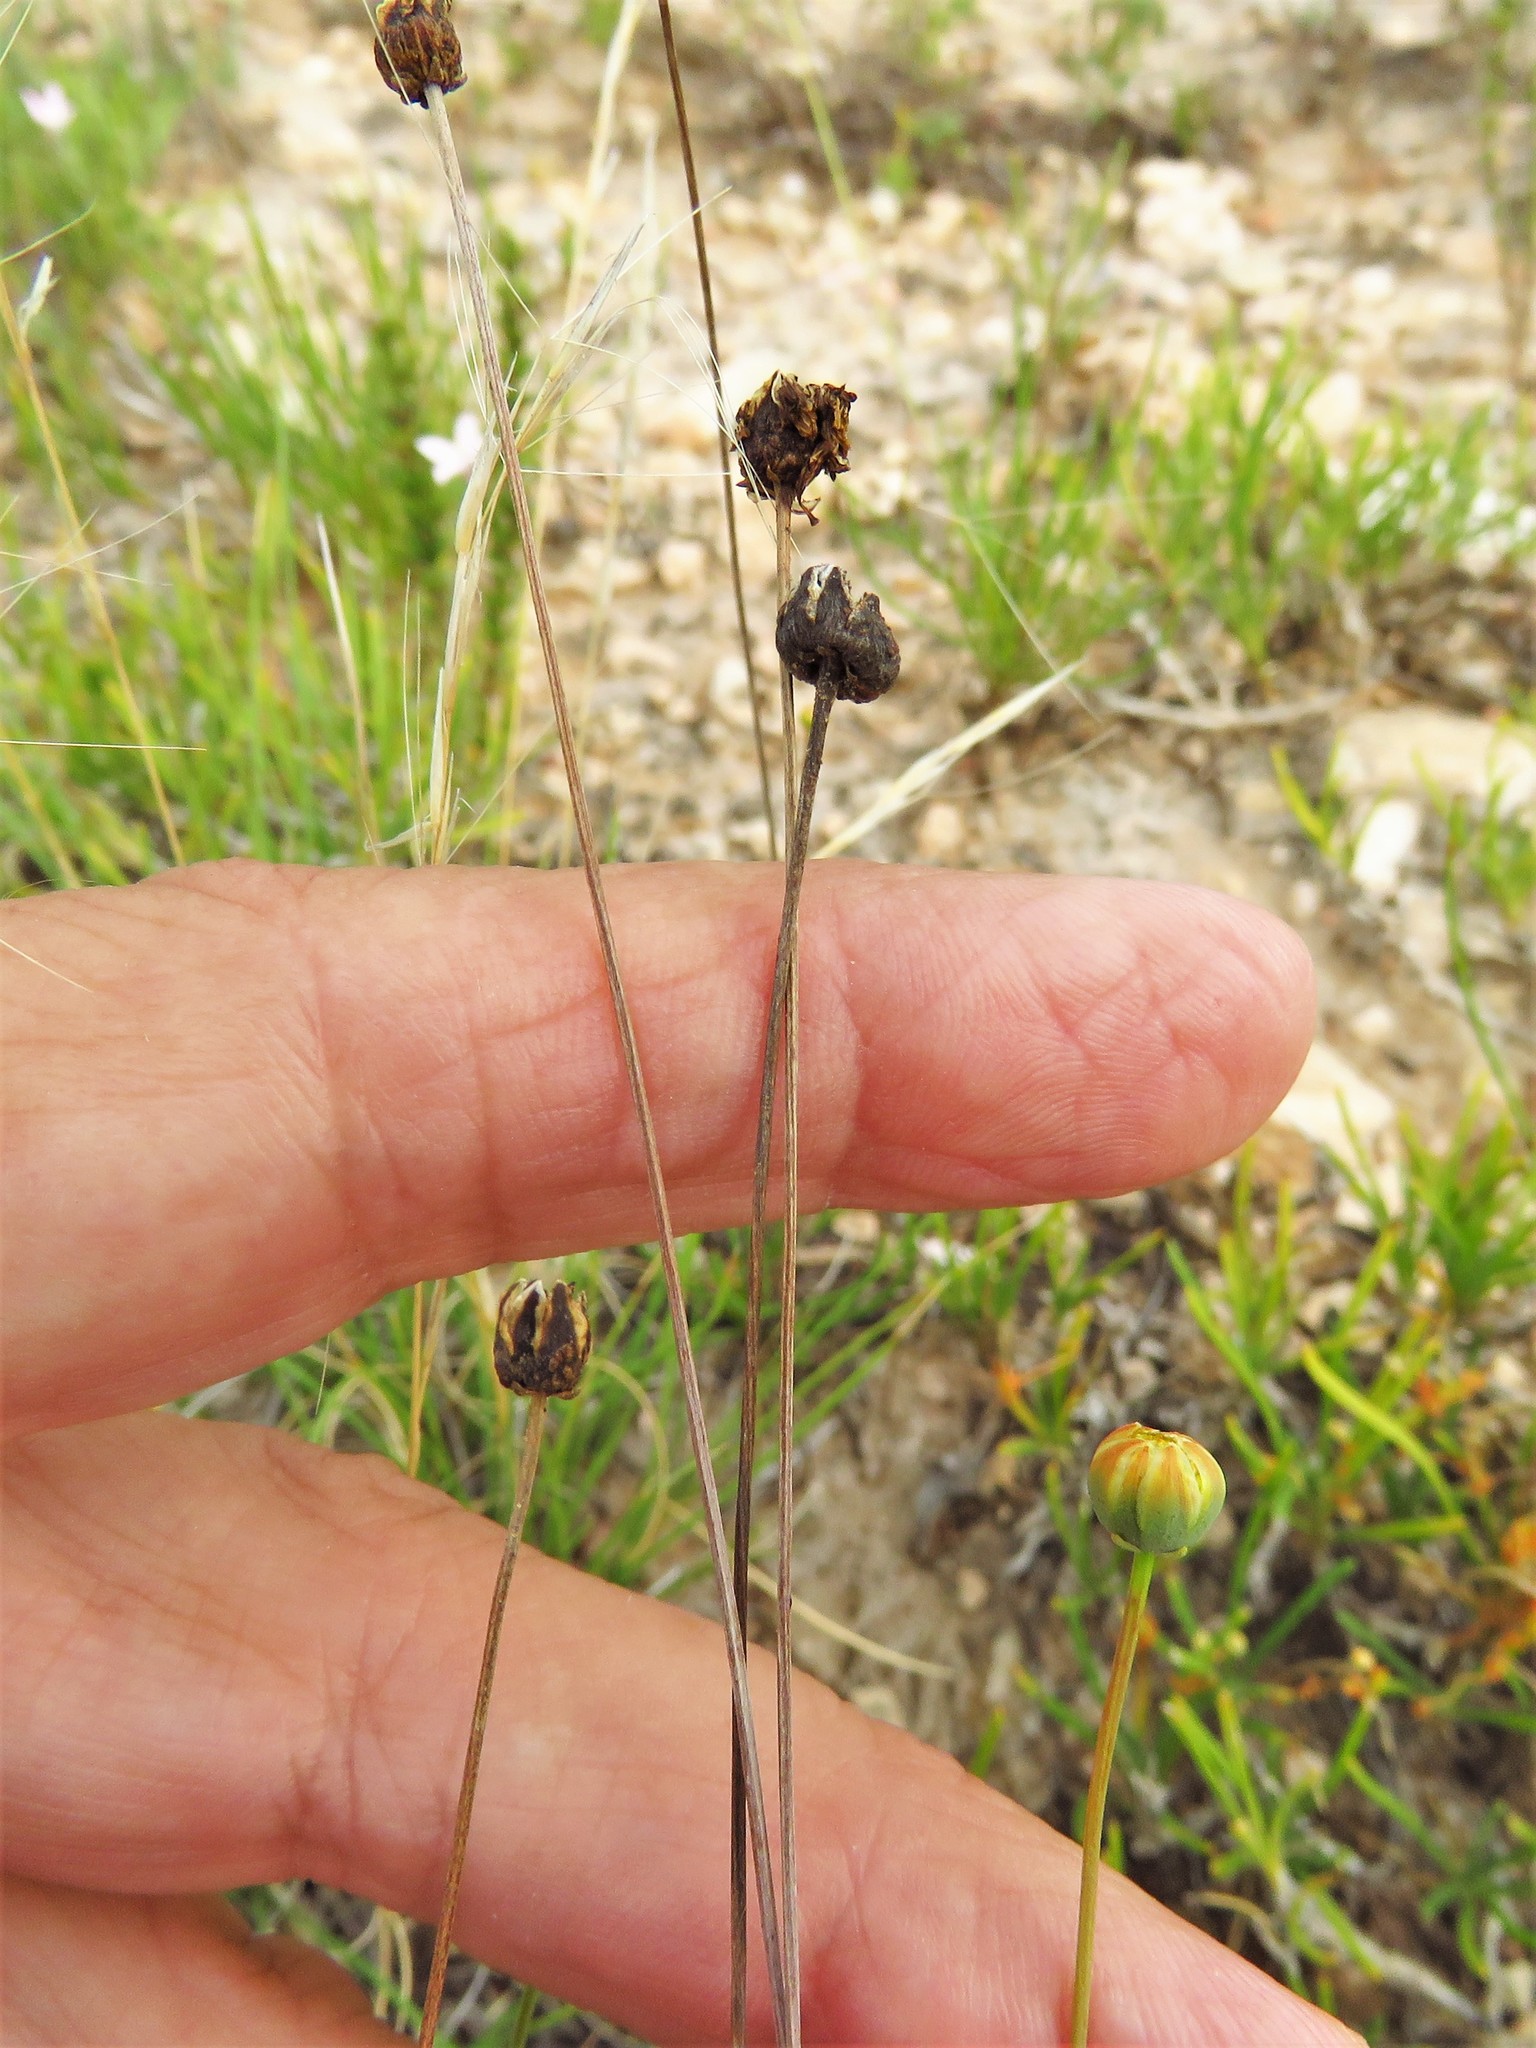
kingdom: Plantae
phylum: Tracheophyta
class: Magnoliopsida
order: Asterales
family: Asteraceae
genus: Thelesperma
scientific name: Thelesperma megapotamicum
